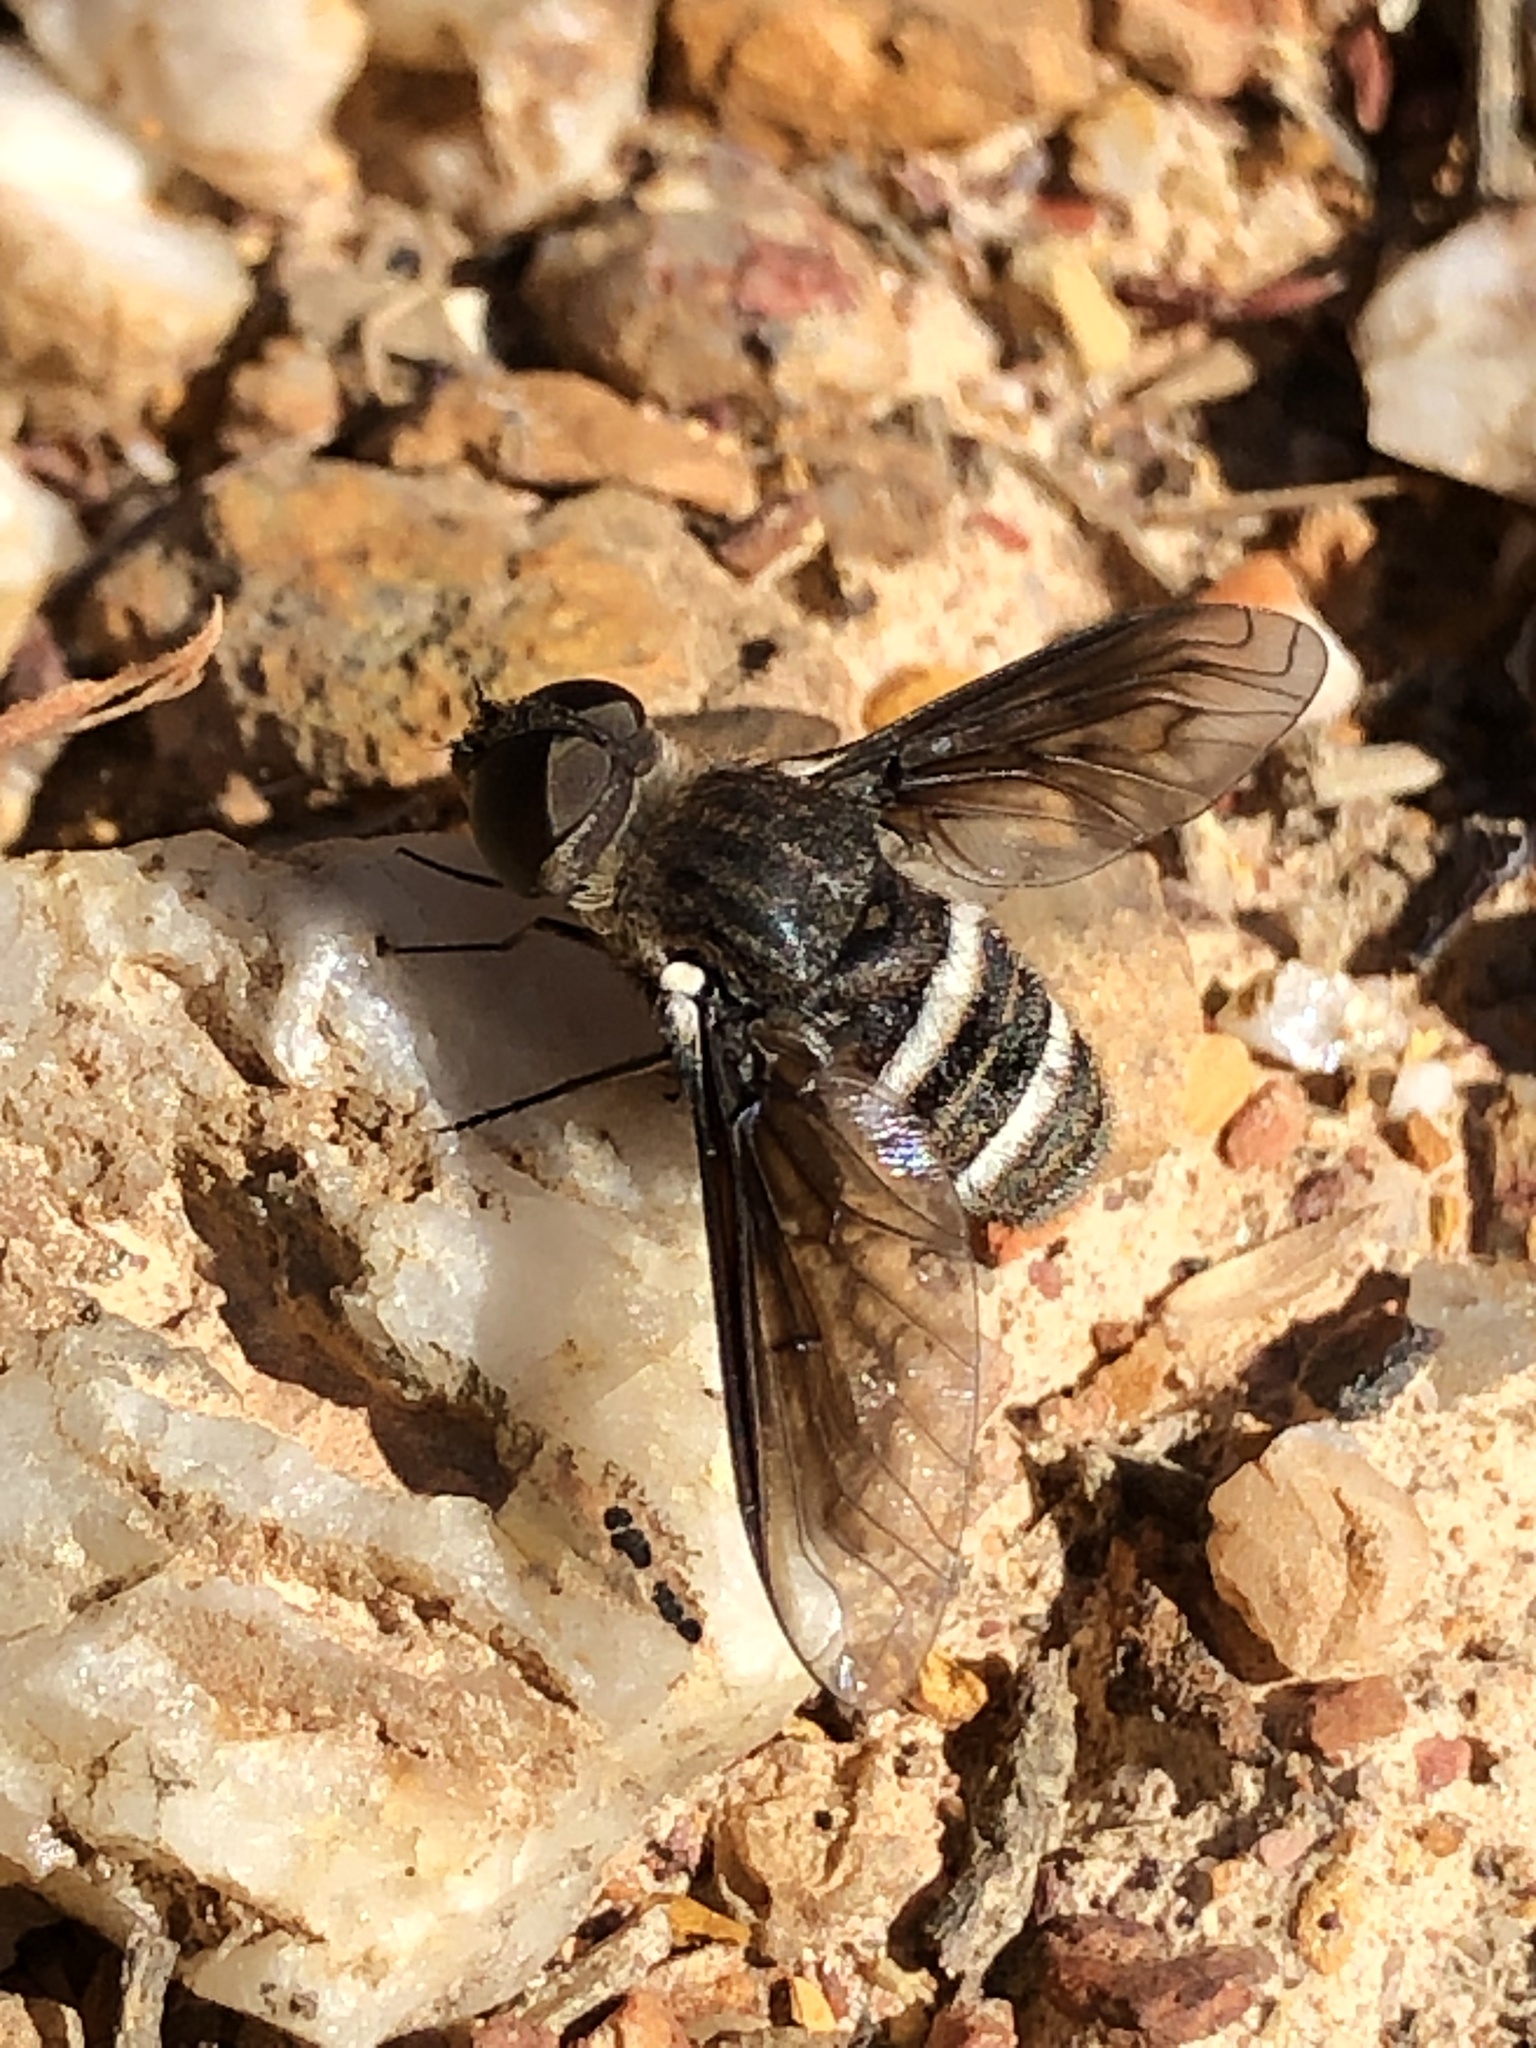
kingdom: Animalia
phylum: Arthropoda
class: Insecta
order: Diptera
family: Bombyliidae
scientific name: Bombyliidae
